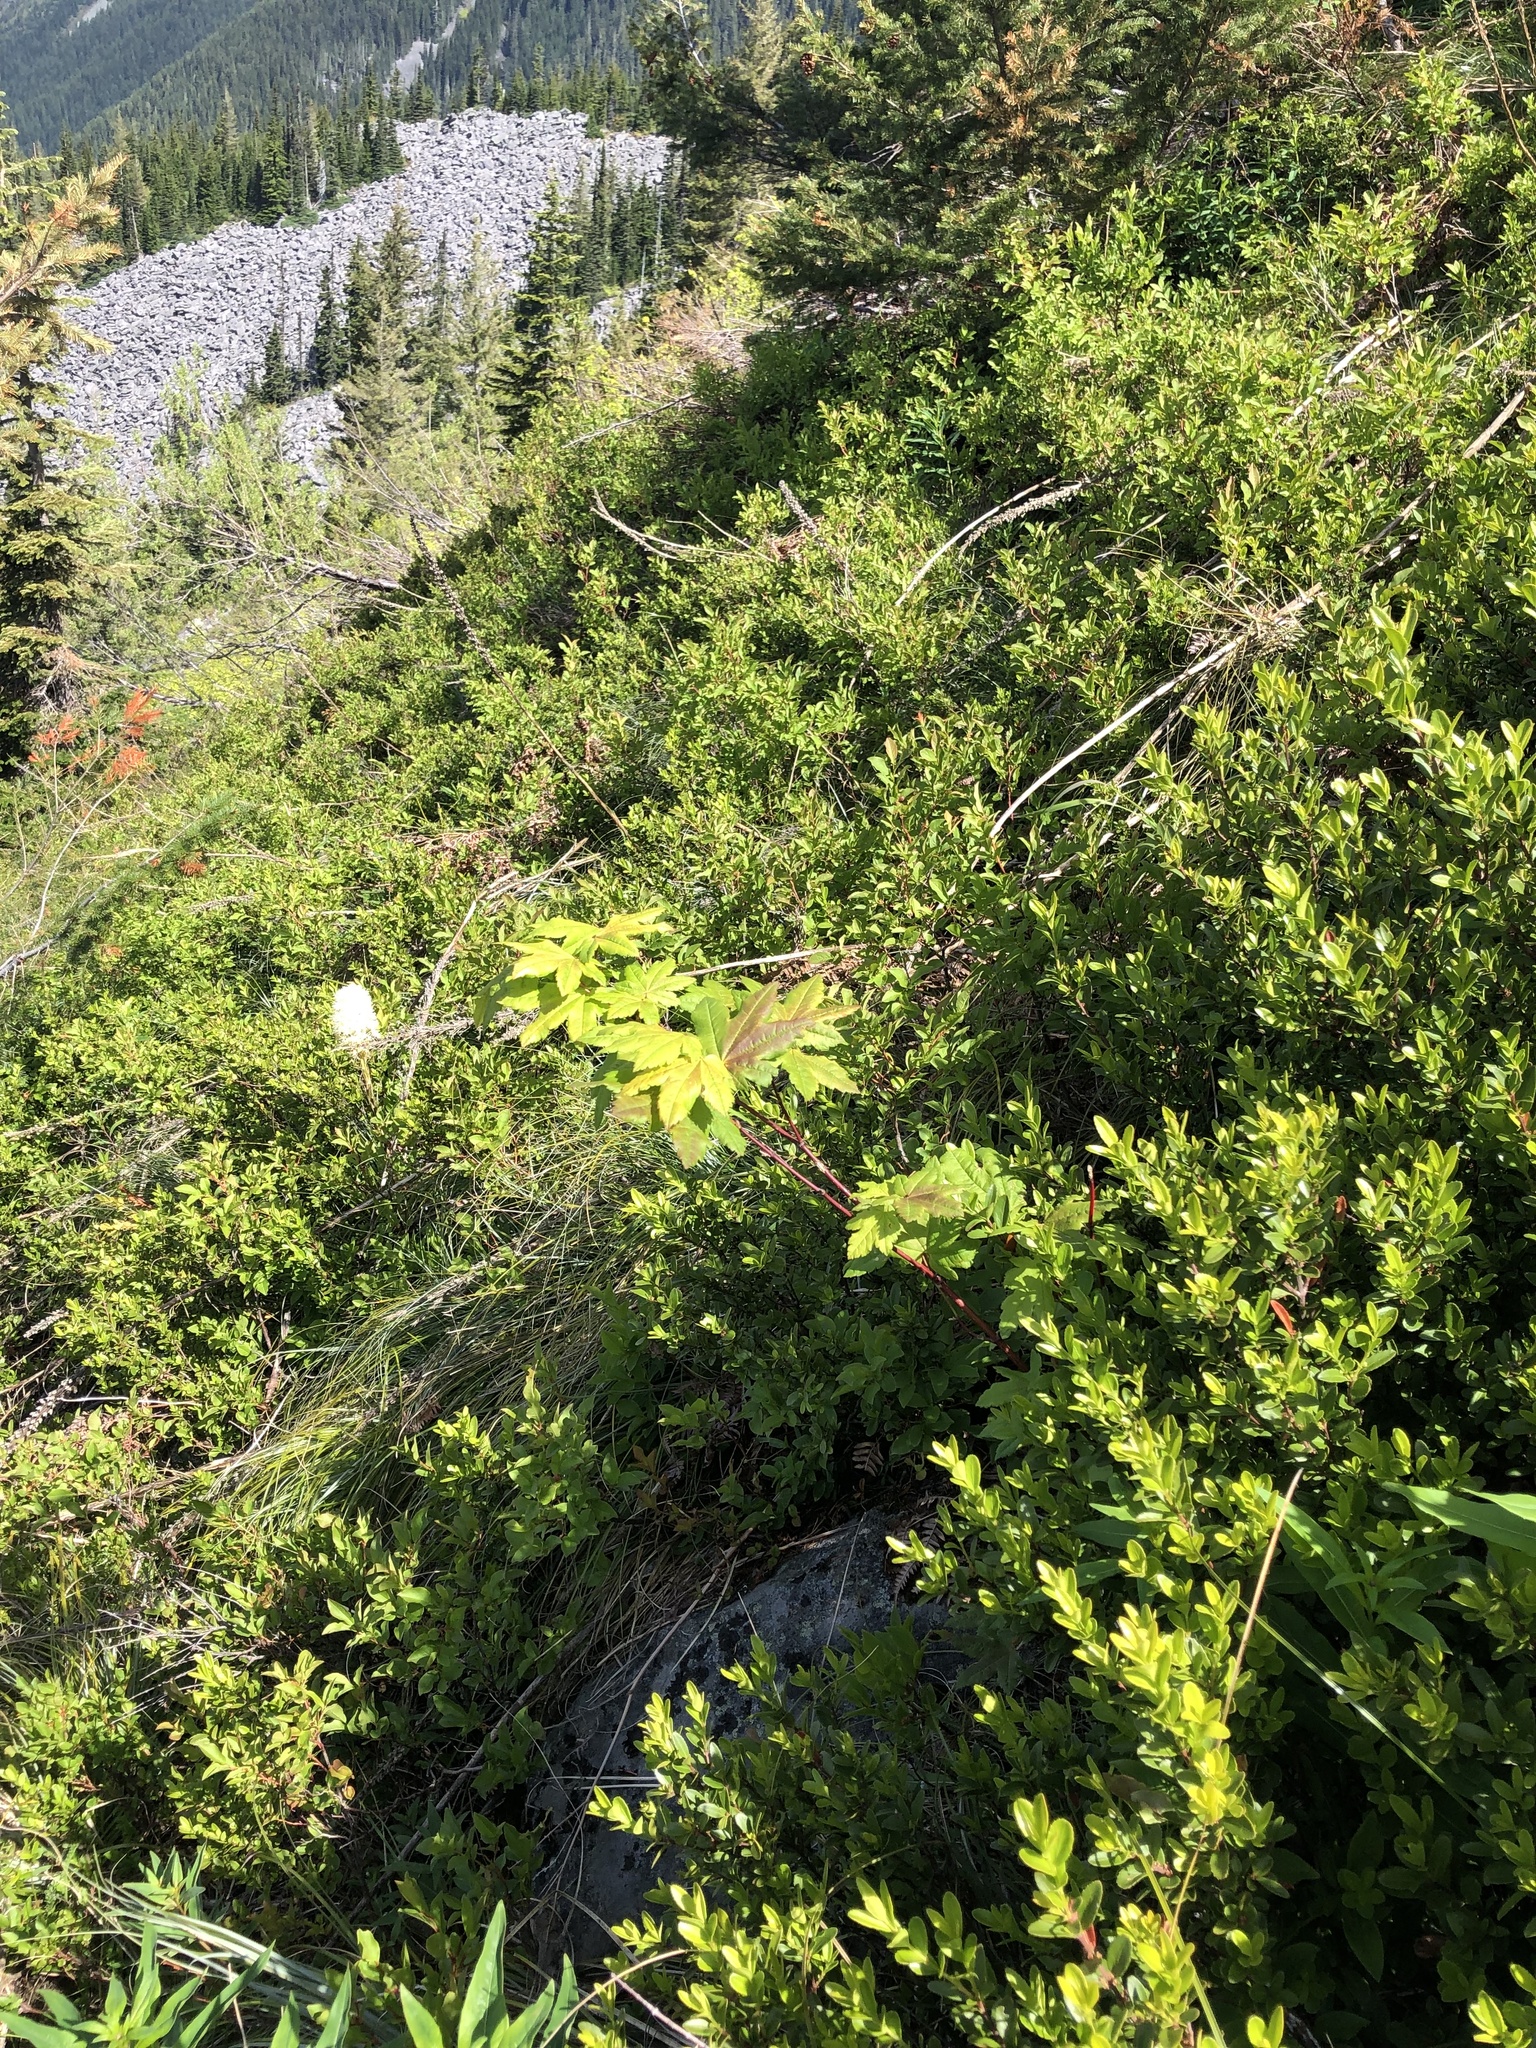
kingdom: Plantae
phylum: Tracheophyta
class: Magnoliopsida
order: Sapindales
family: Sapindaceae
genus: Acer
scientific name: Acer circinatum
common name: Vine maple
